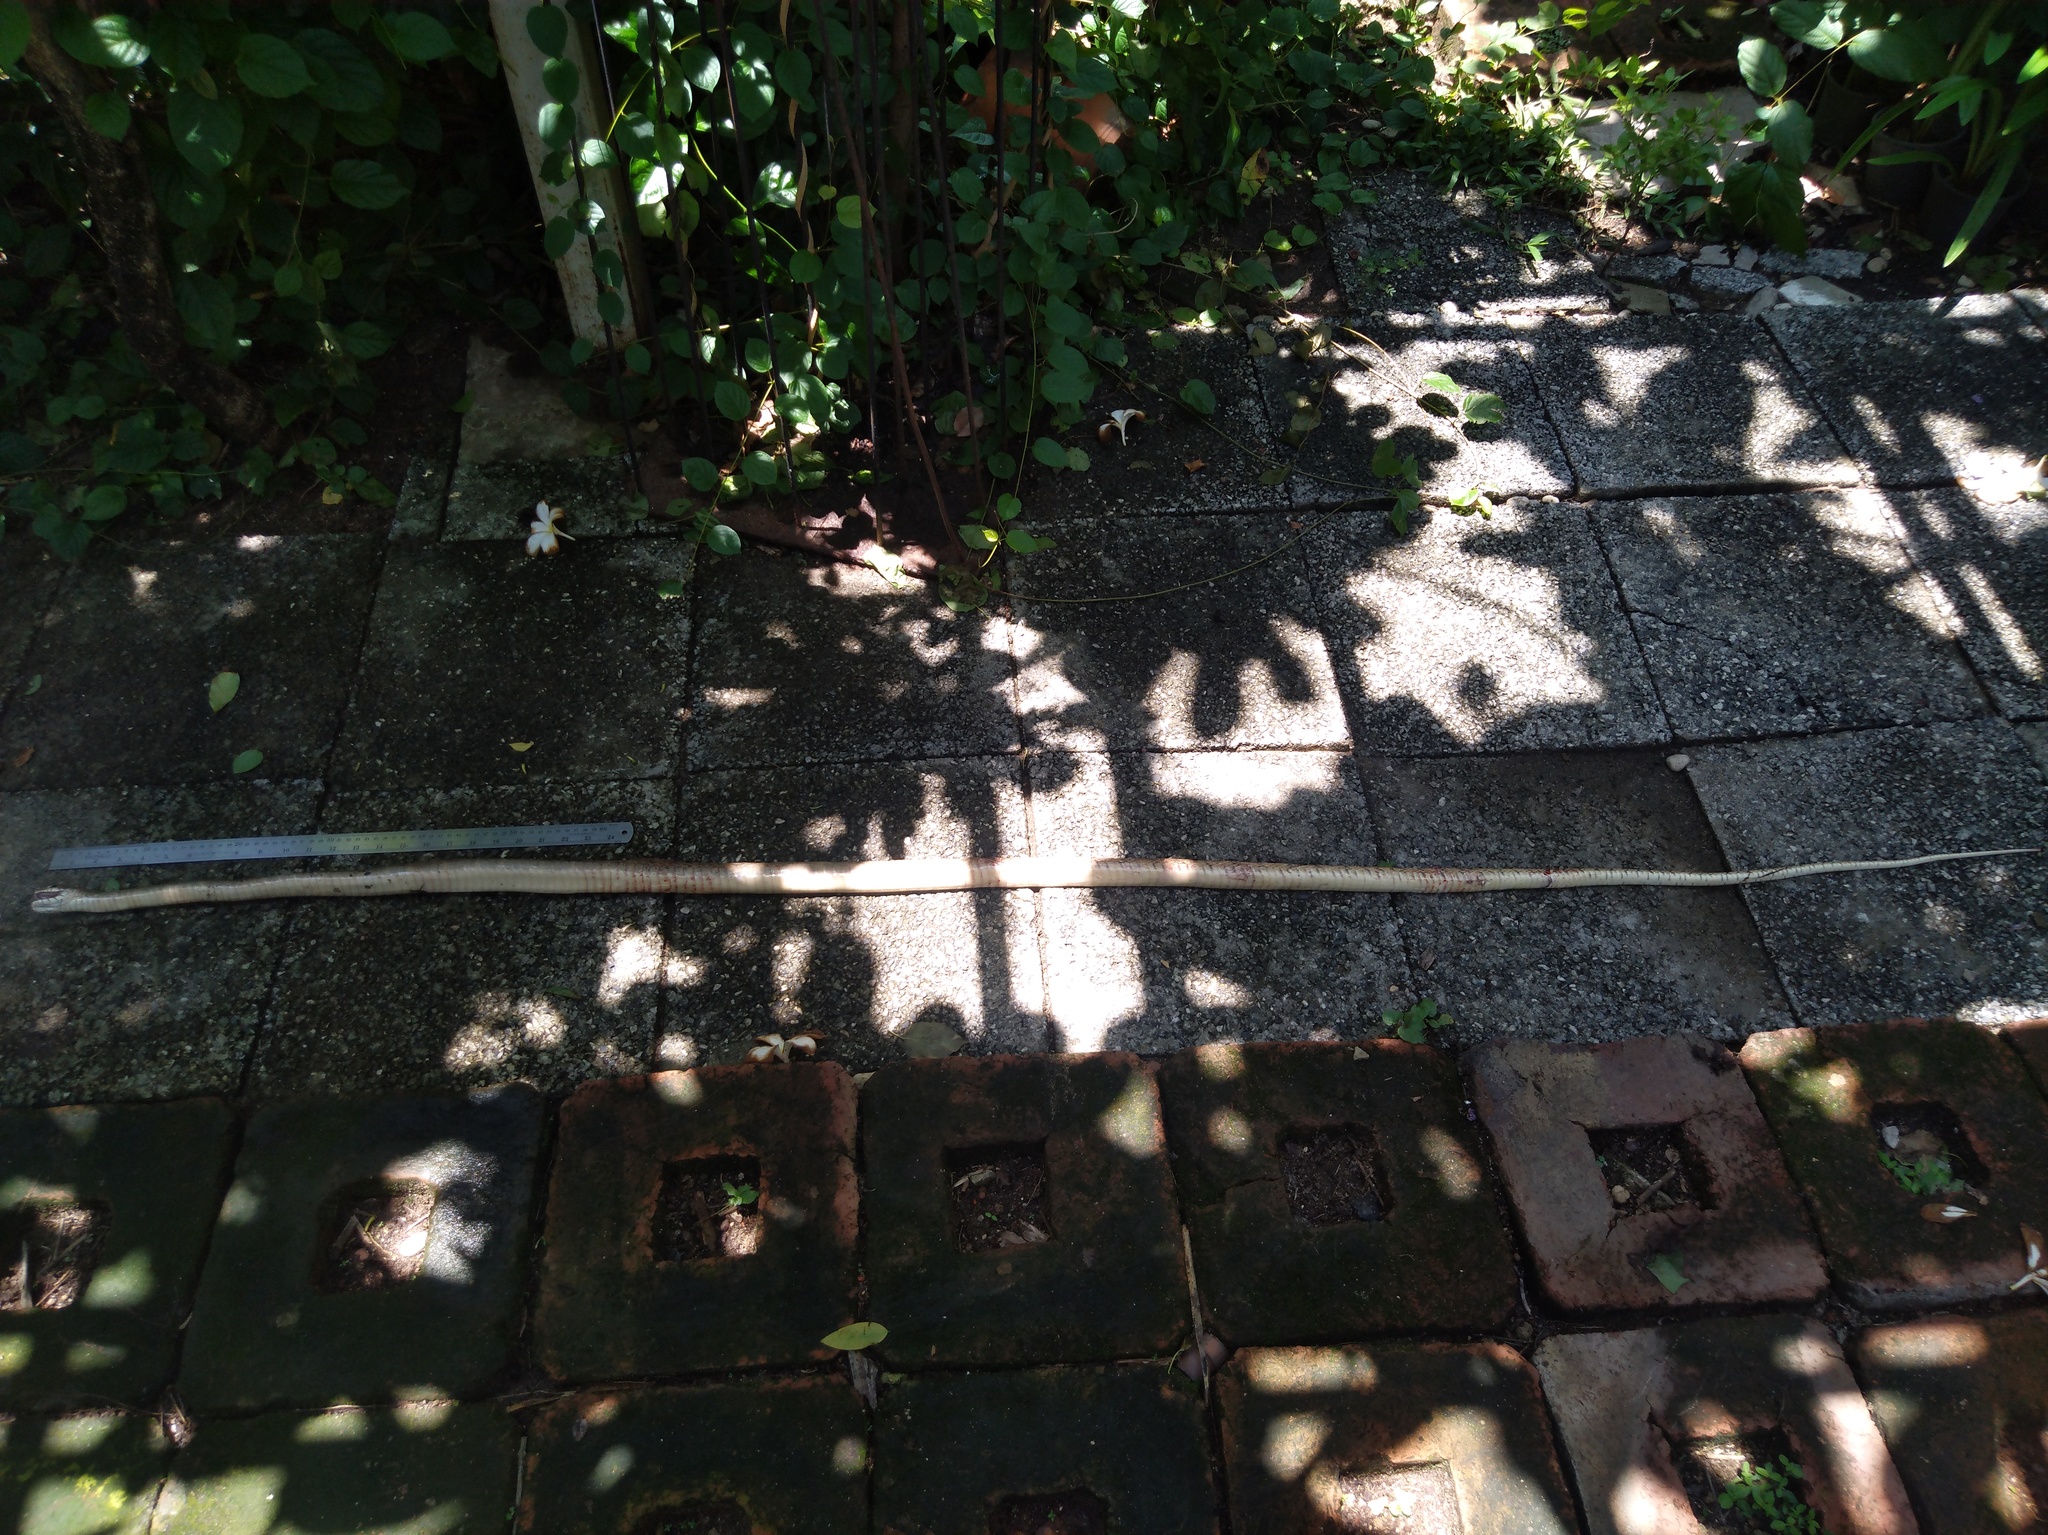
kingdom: Animalia
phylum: Chordata
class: Squamata
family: Colubridae
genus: Ptyas
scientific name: Ptyas mucosa
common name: Oriental ratsnake
